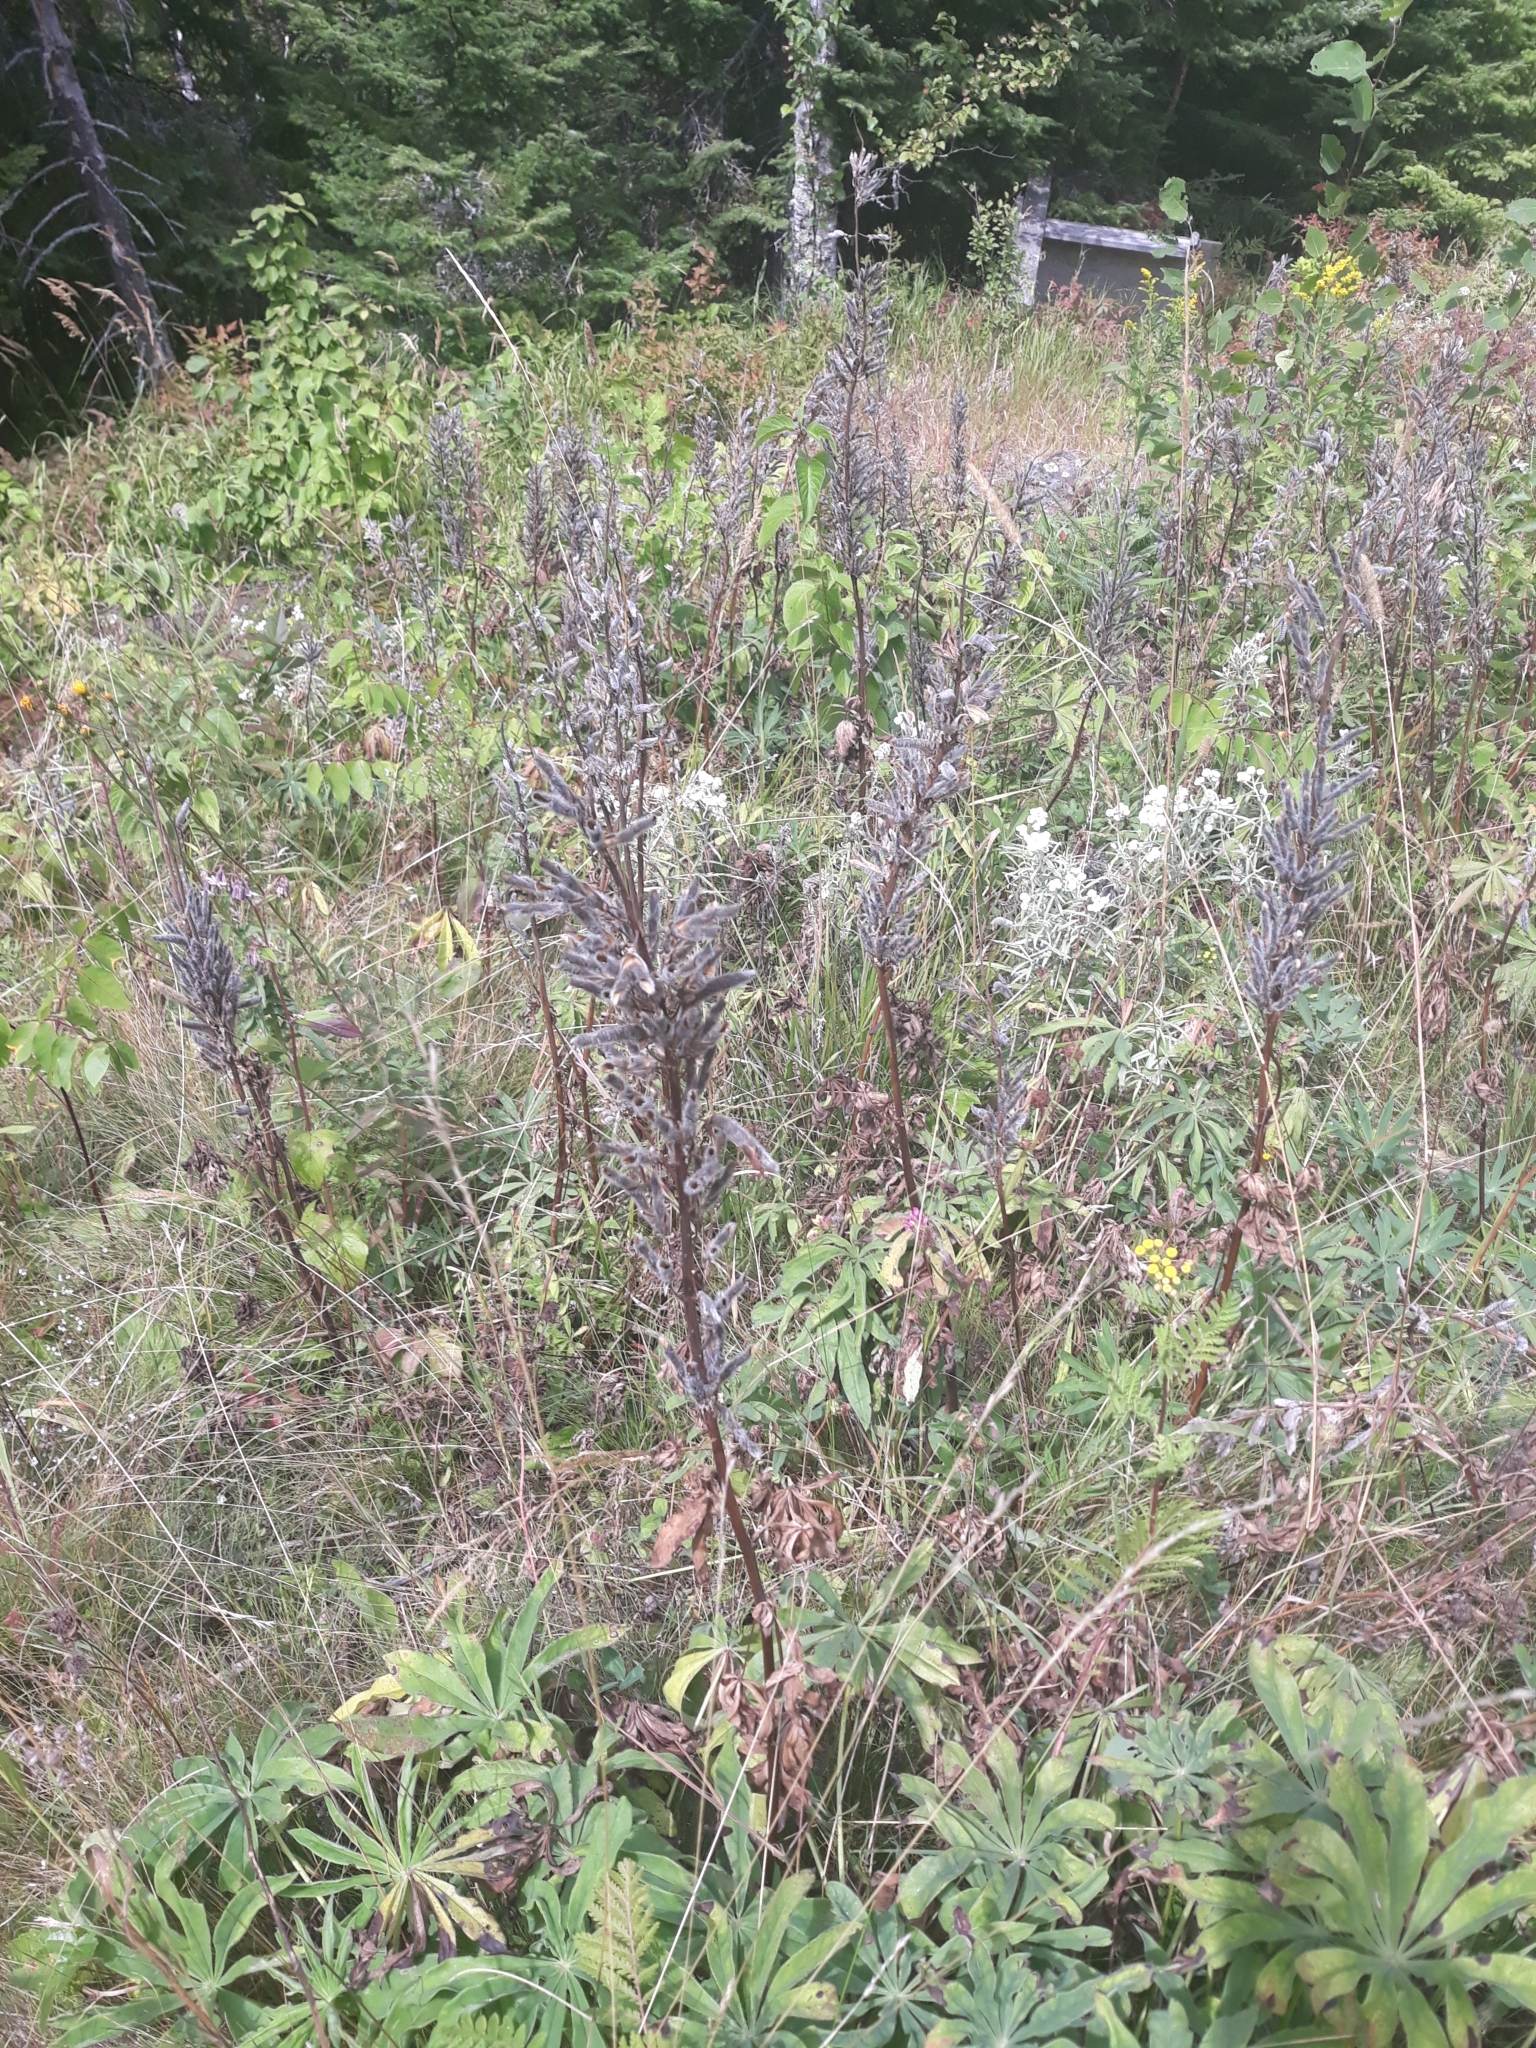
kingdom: Plantae
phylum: Tracheophyta
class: Magnoliopsida
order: Fabales
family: Fabaceae
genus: Lupinus
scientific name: Lupinus polyphyllus
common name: Garden lupin
